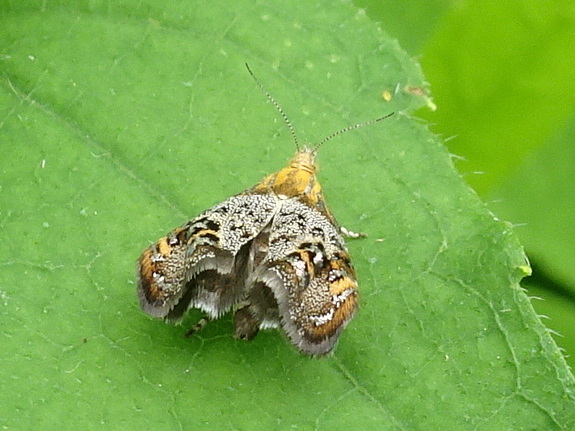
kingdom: Animalia
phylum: Arthropoda
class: Insecta
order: Lepidoptera
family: Choreutidae
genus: Tebenna
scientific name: Tebenna
